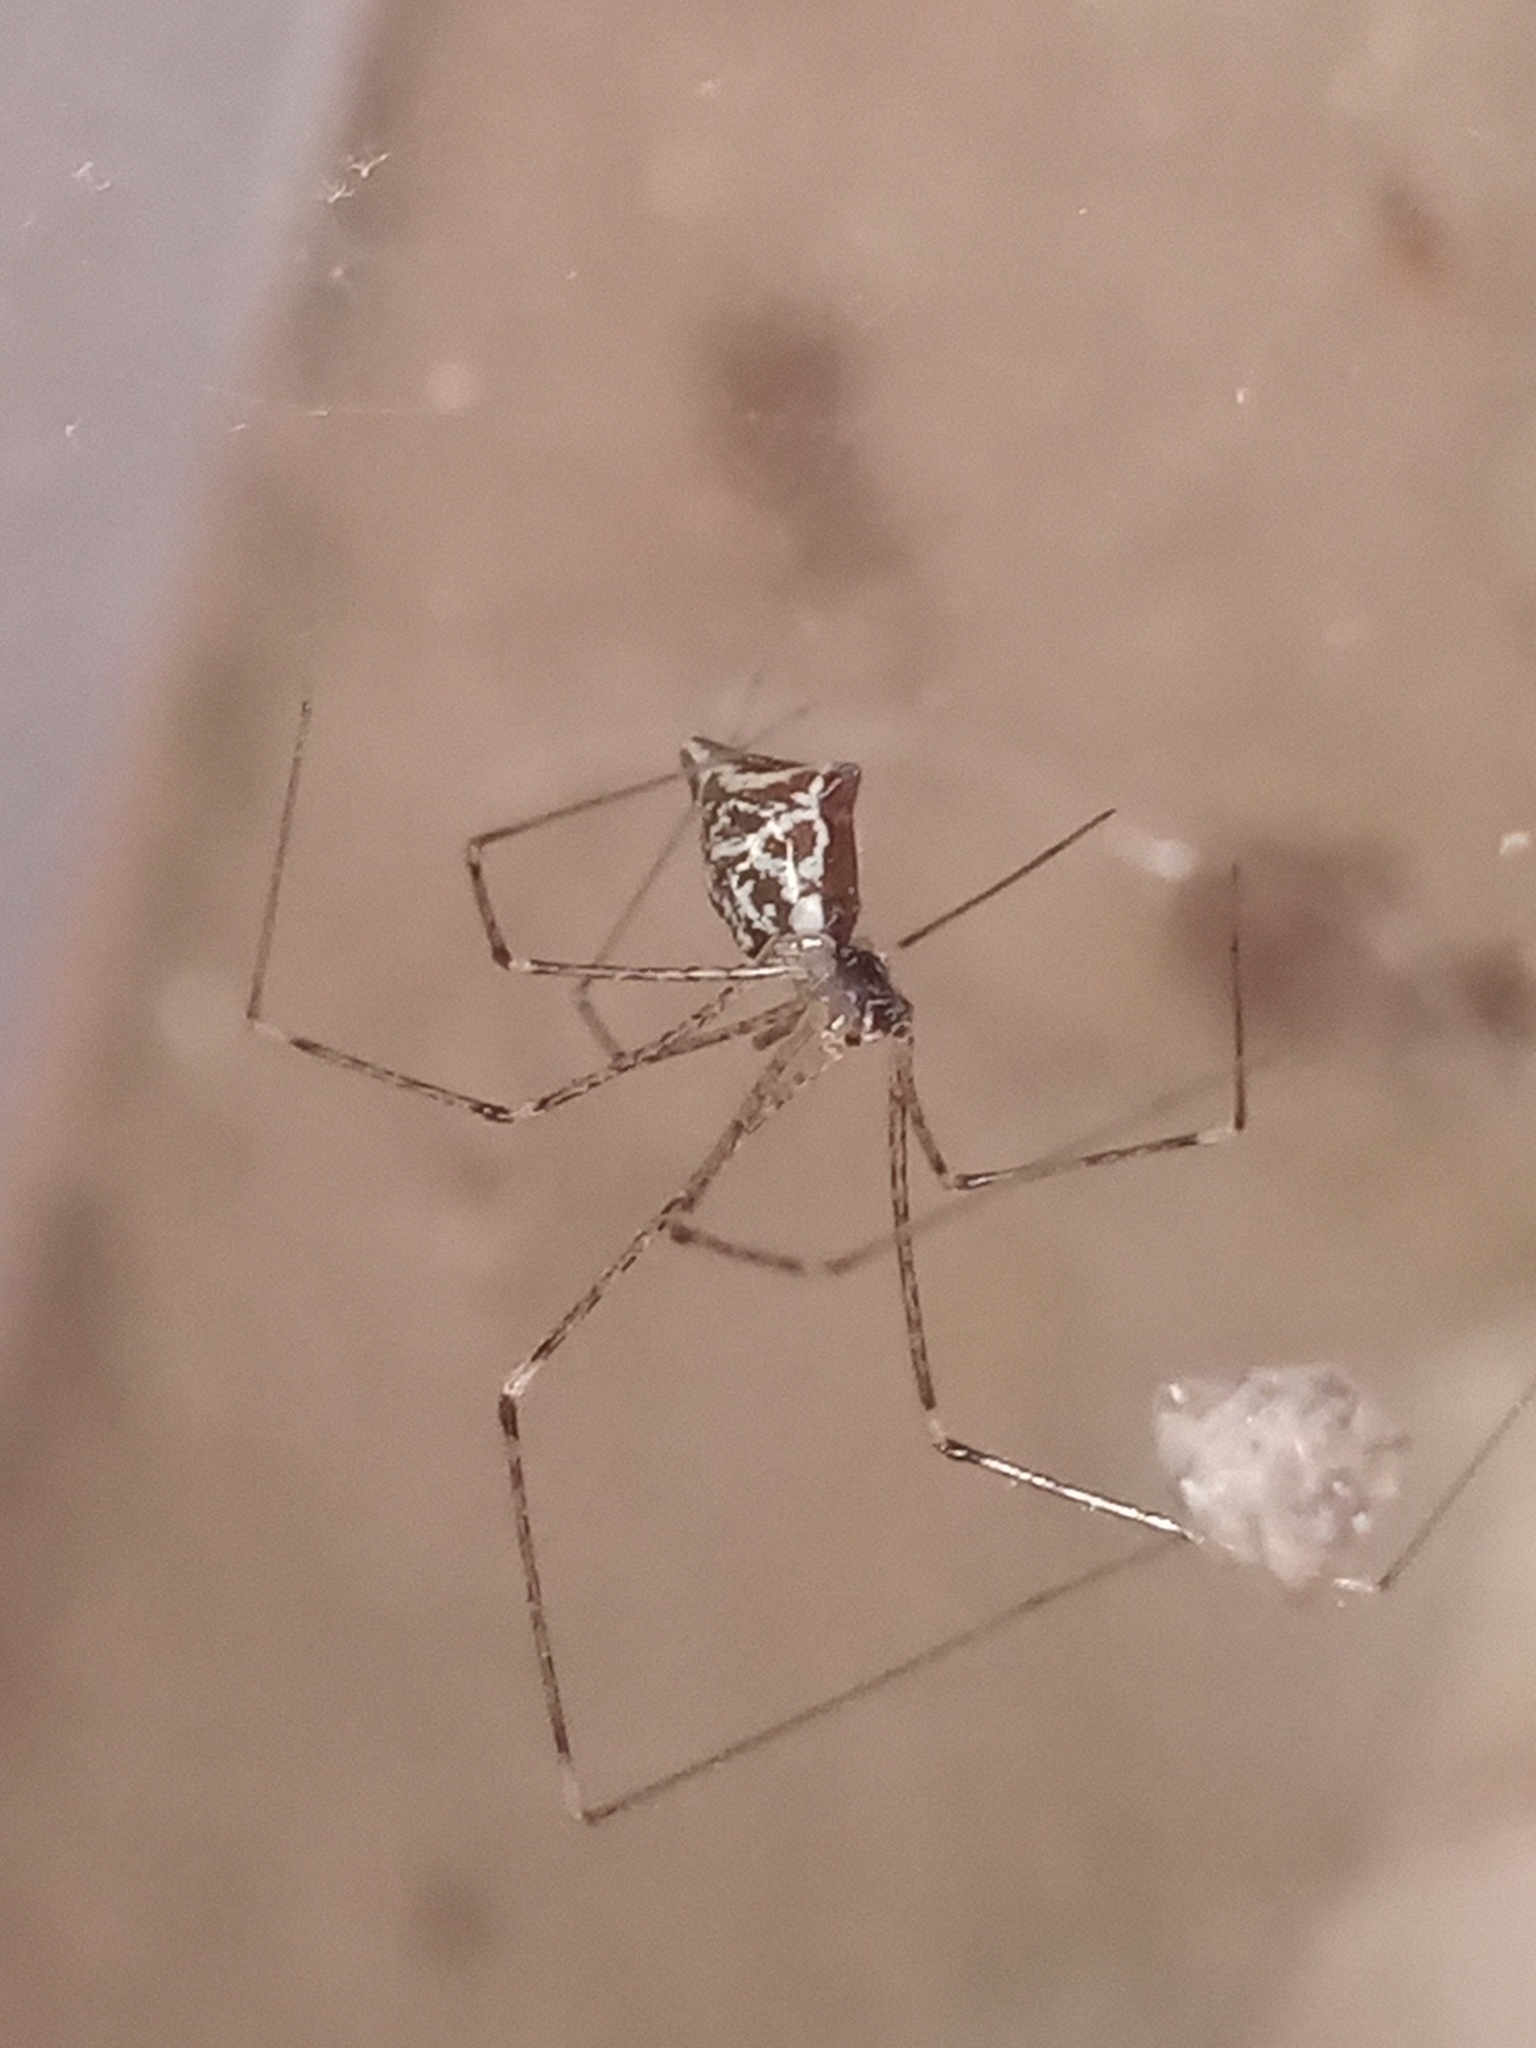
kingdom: Animalia
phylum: Arthropoda
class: Arachnida
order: Araneae
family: Pholcidae
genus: Crossopriza
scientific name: Crossopriza lyoni
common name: Cellar spiders
